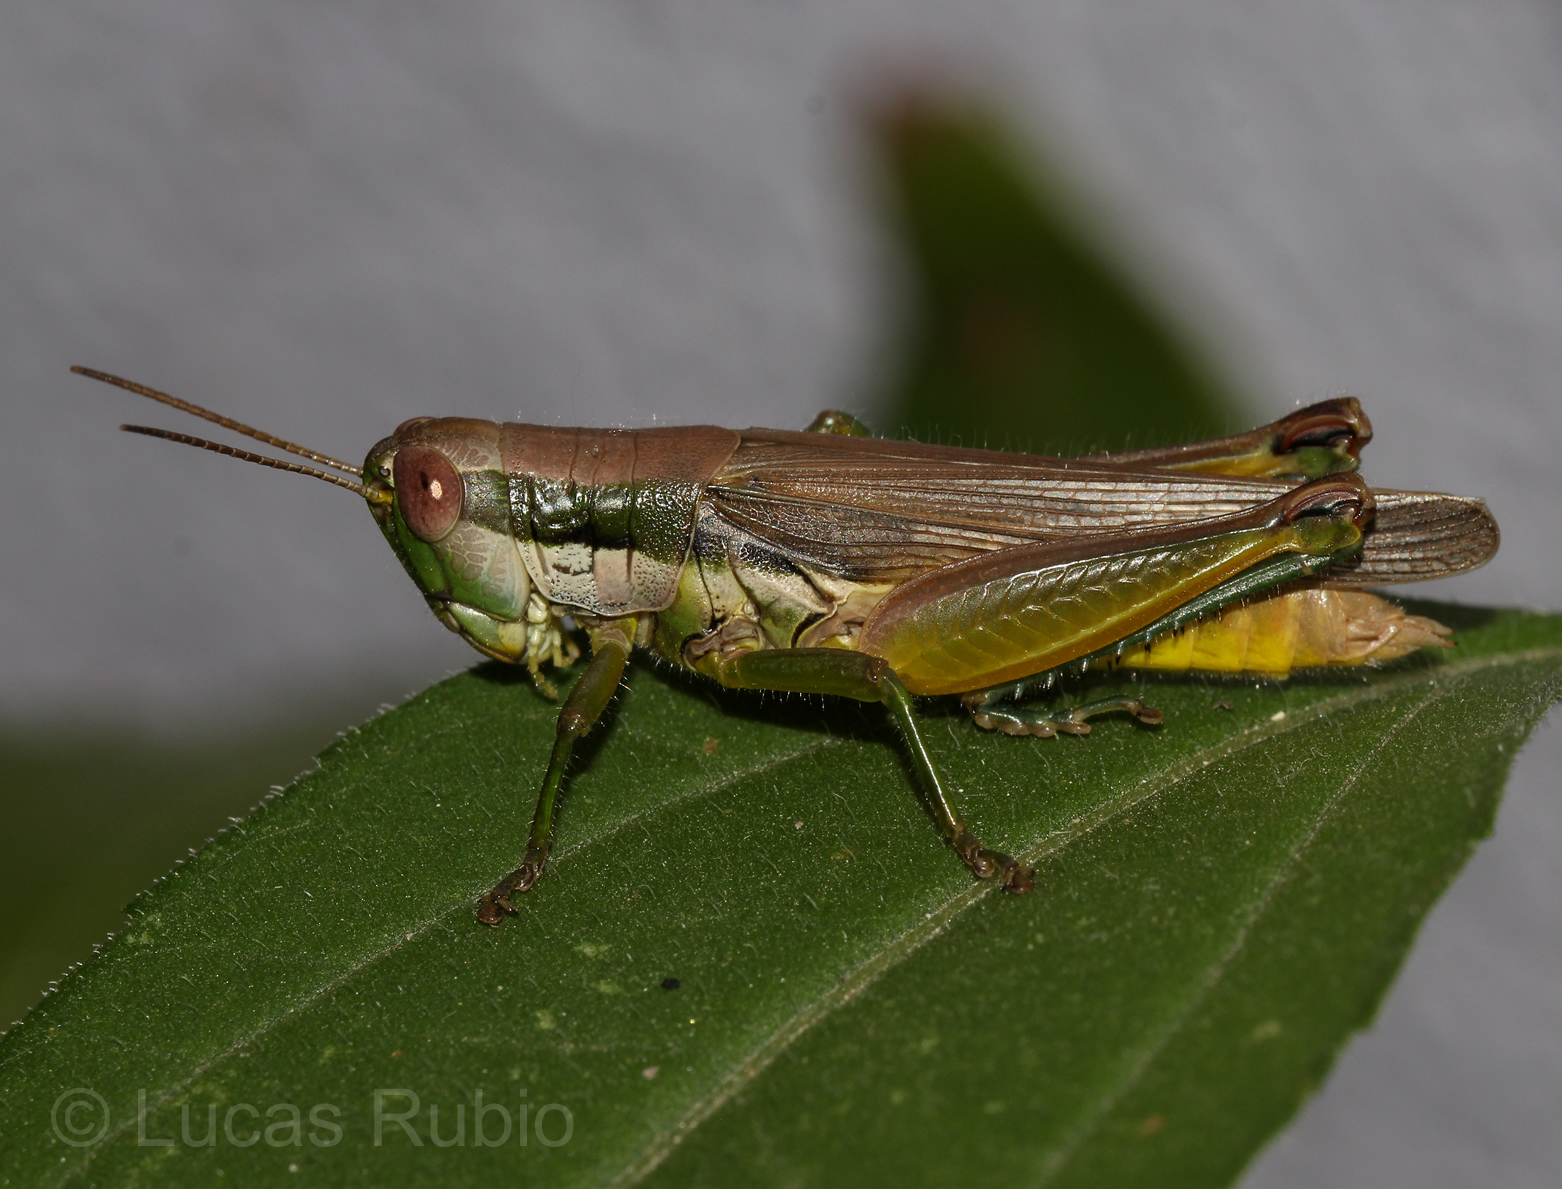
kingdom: Animalia
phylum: Arthropoda
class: Insecta
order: Orthoptera
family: Acrididae
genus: Scotussa
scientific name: Scotussa liebermanni
